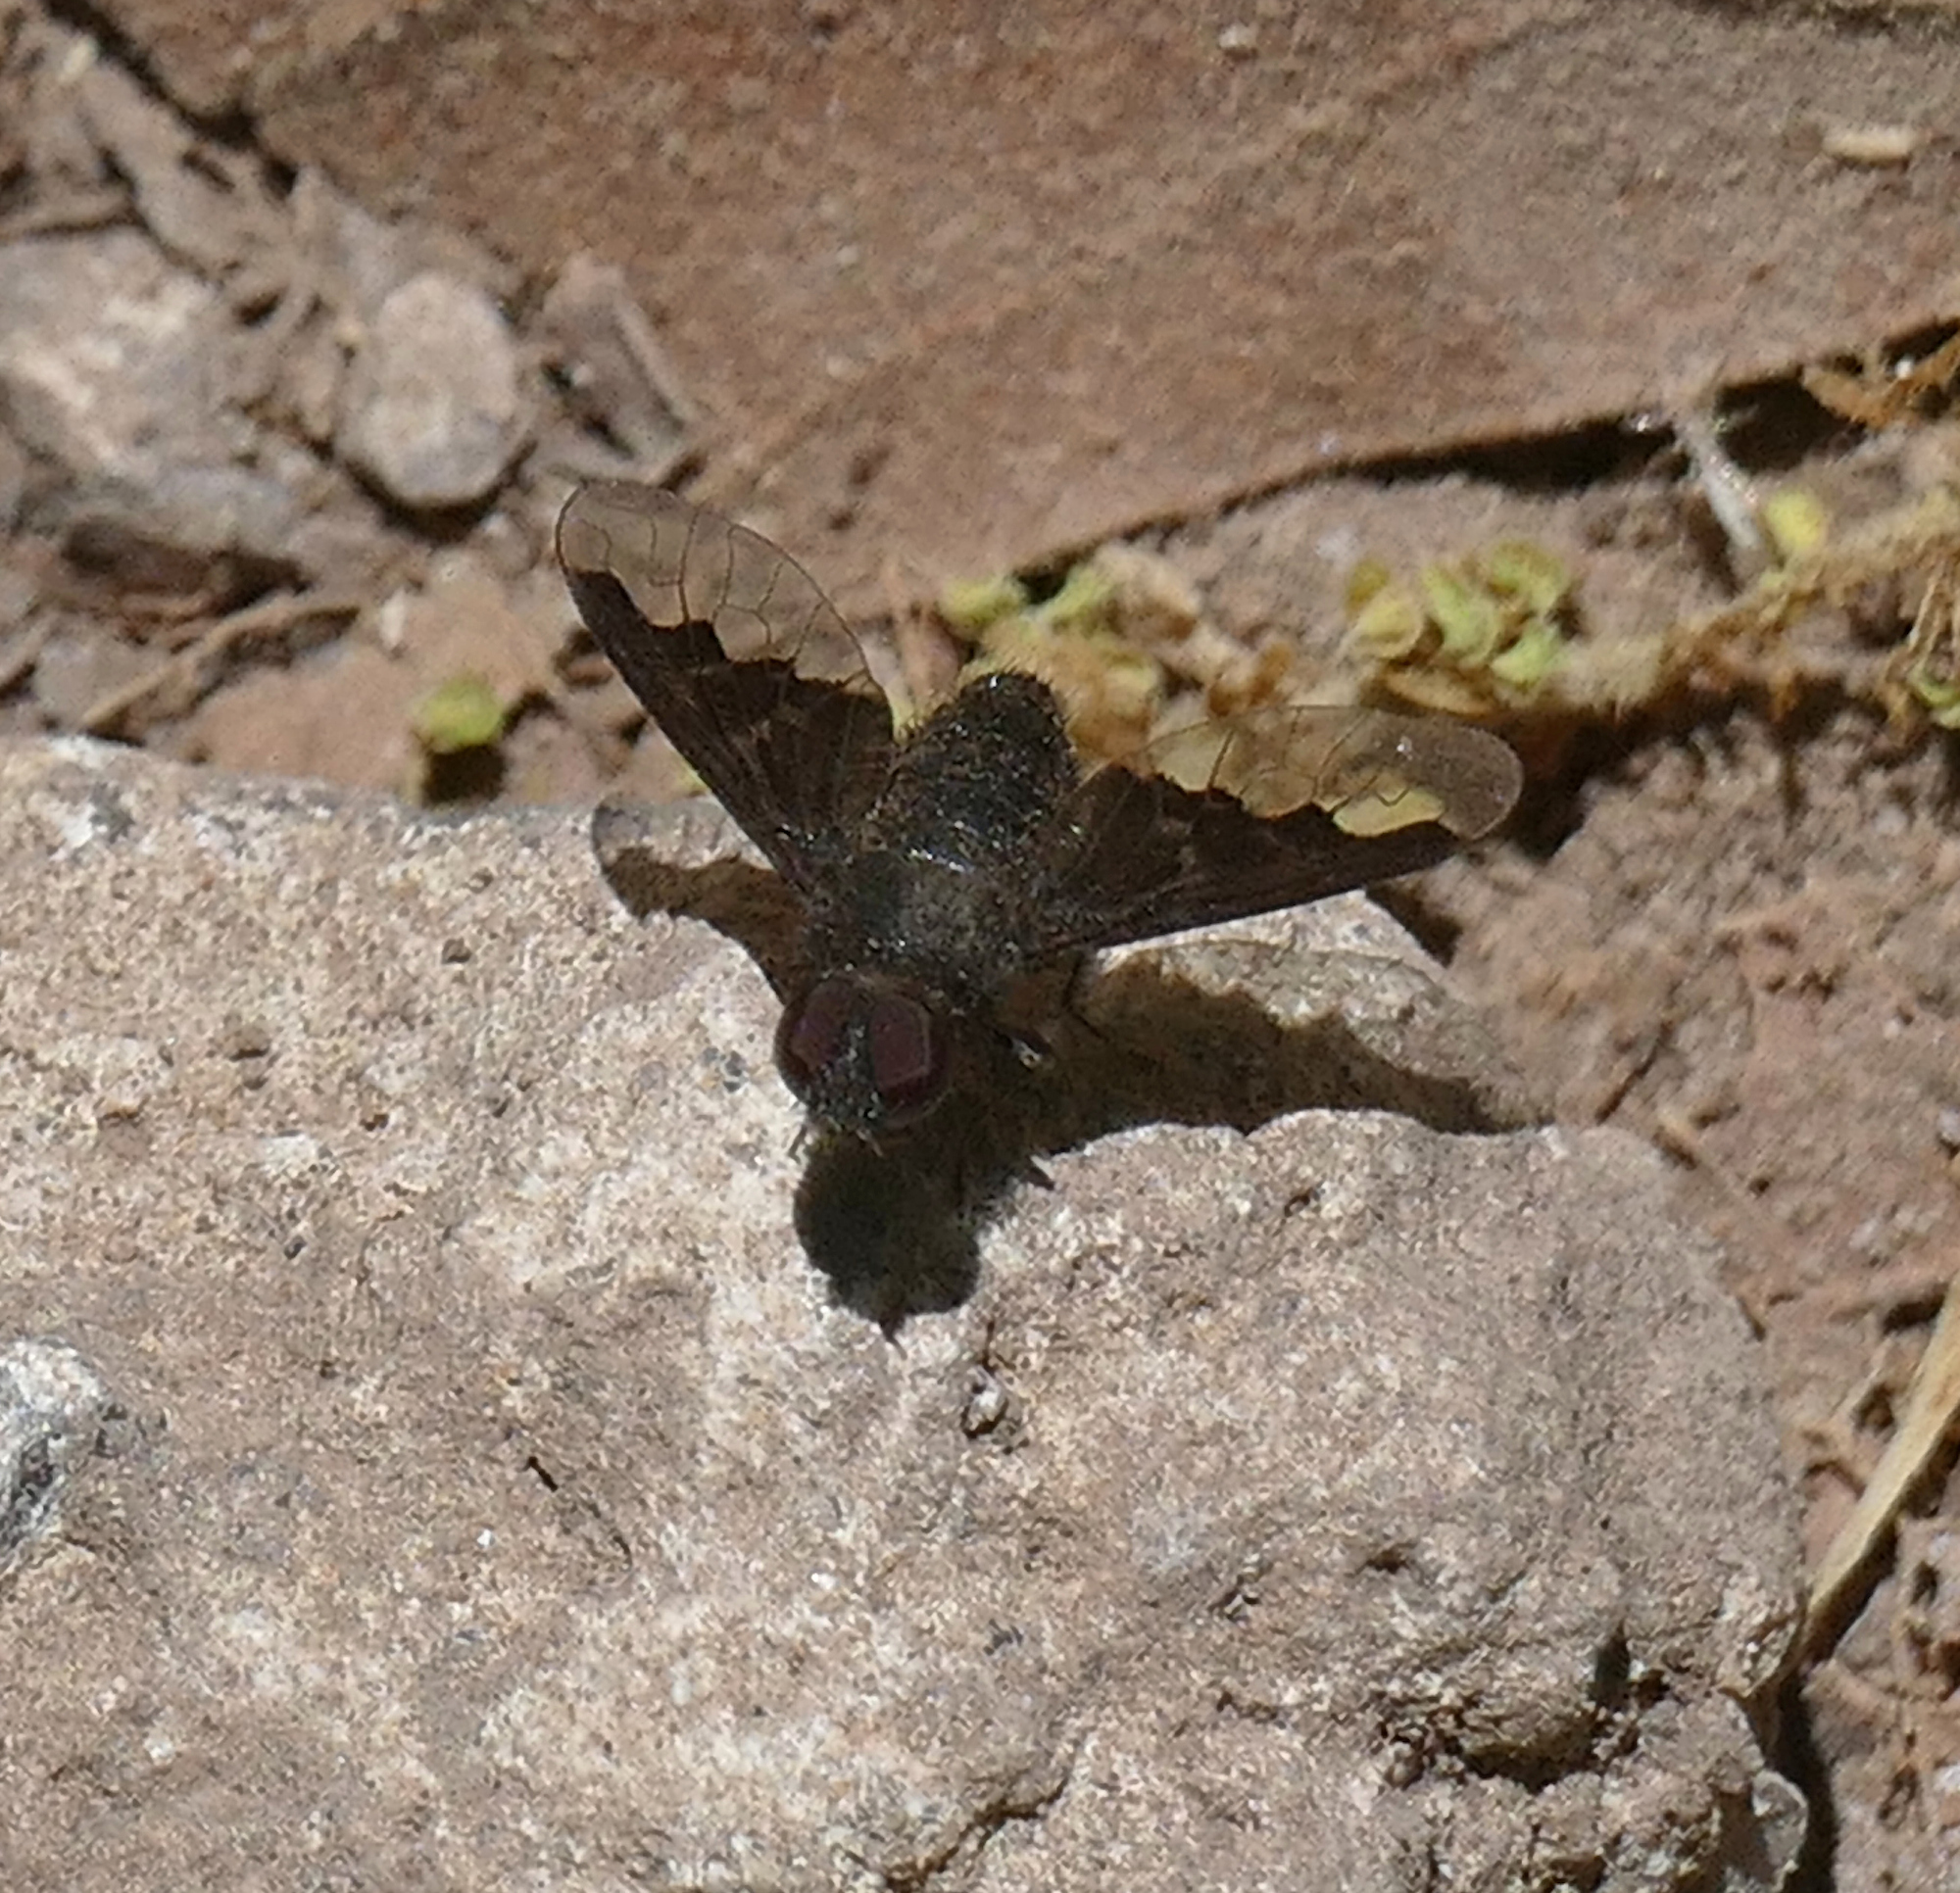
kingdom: Animalia
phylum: Arthropoda
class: Insecta
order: Diptera
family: Bombyliidae
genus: Hemipenthes
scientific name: Hemipenthes morioides
